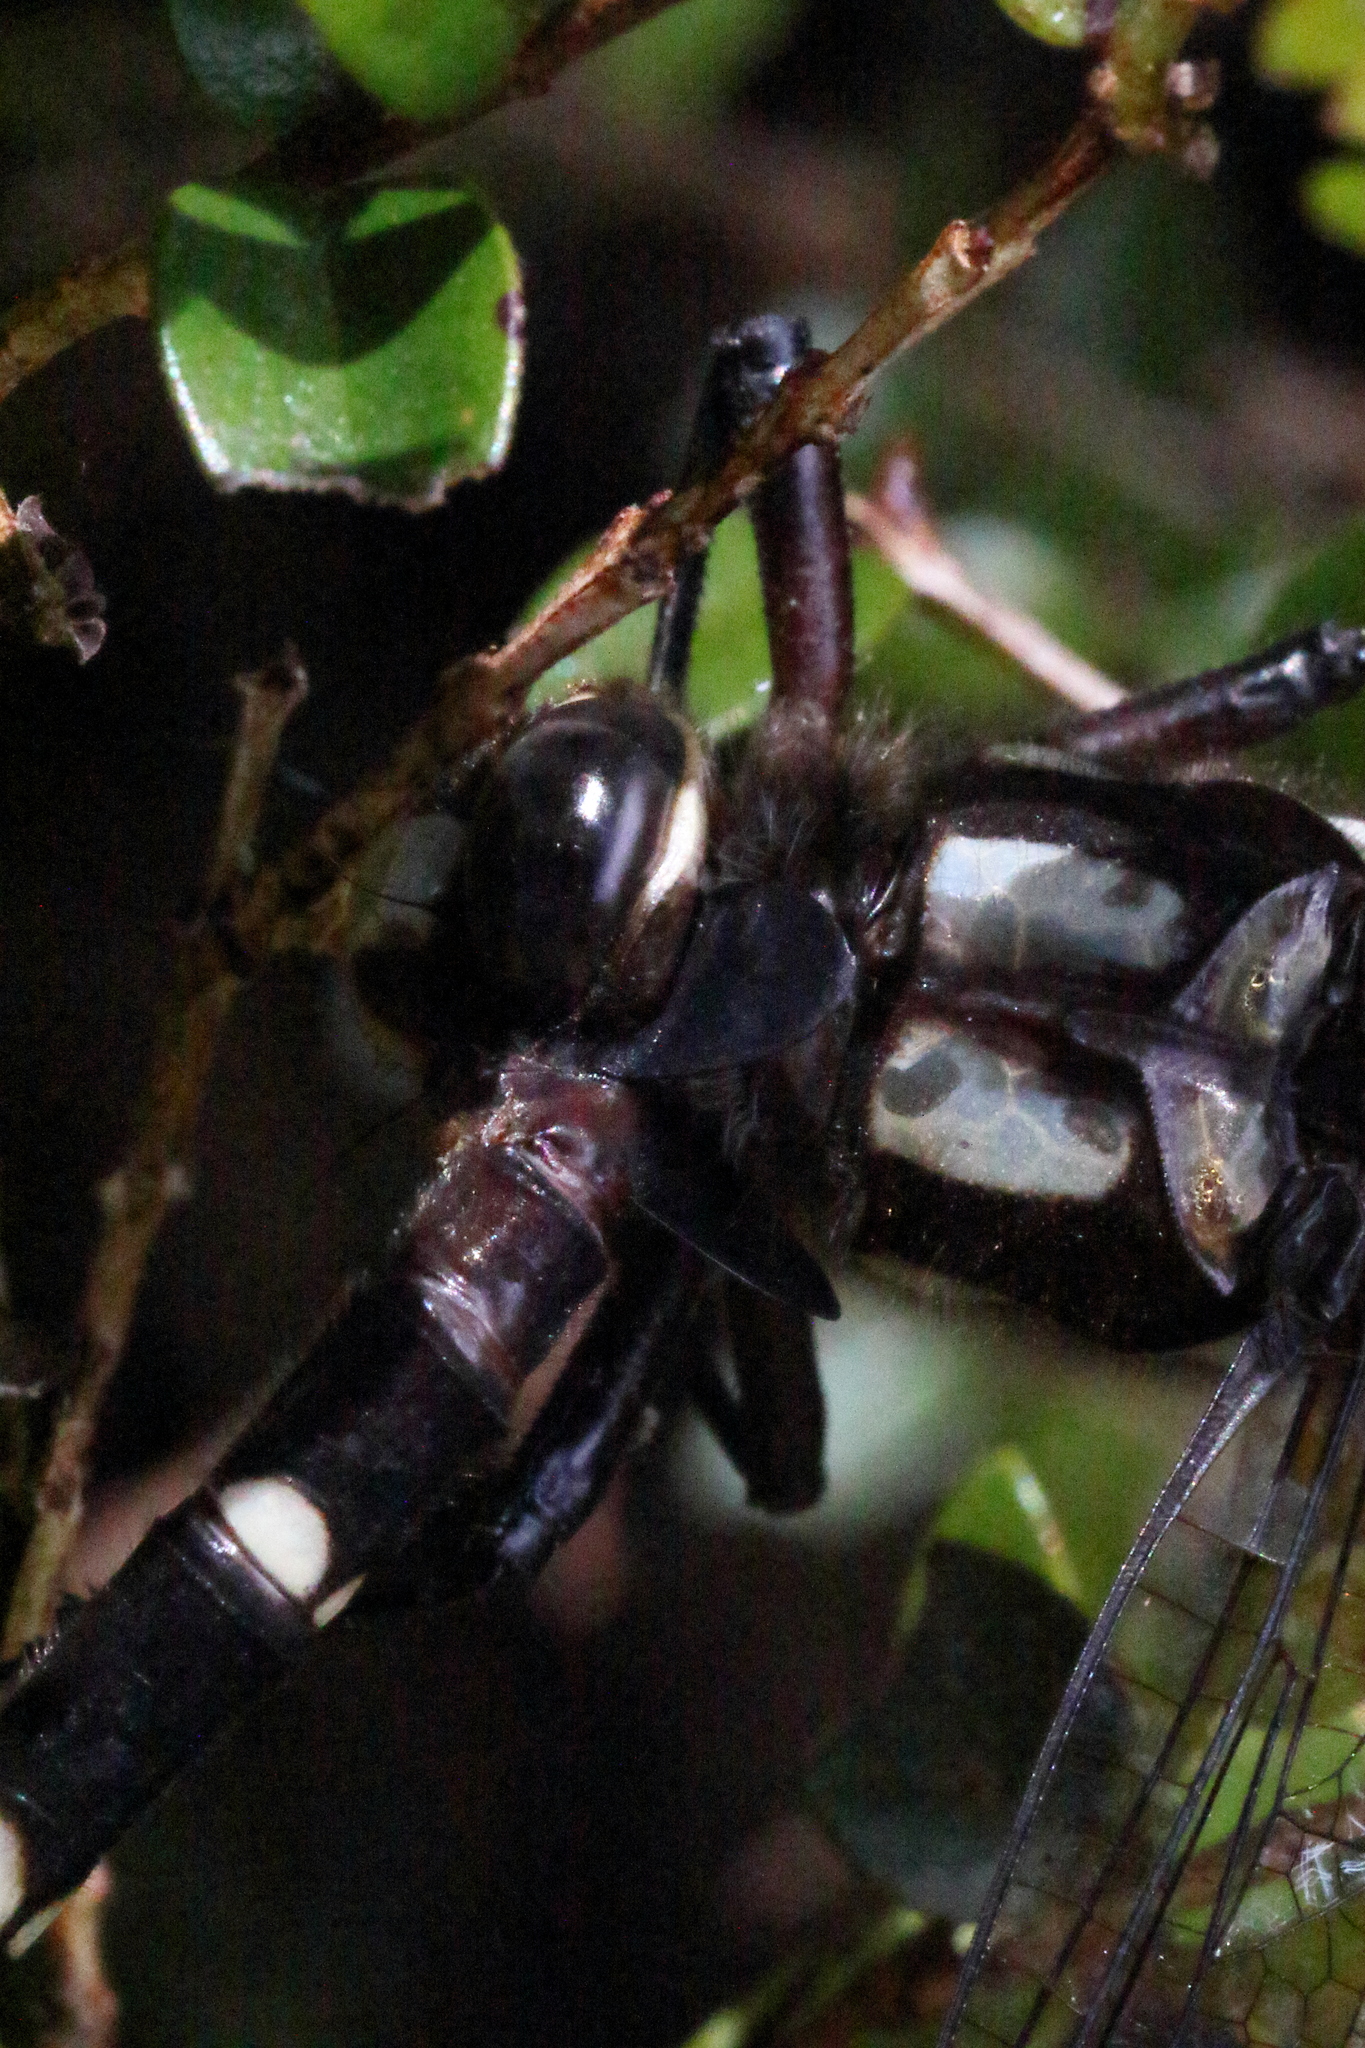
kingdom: Animalia
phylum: Arthropoda
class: Insecta
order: Odonata
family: Petaluridae
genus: Uropetala
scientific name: Uropetala carovei
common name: Bush giant dragonfly
